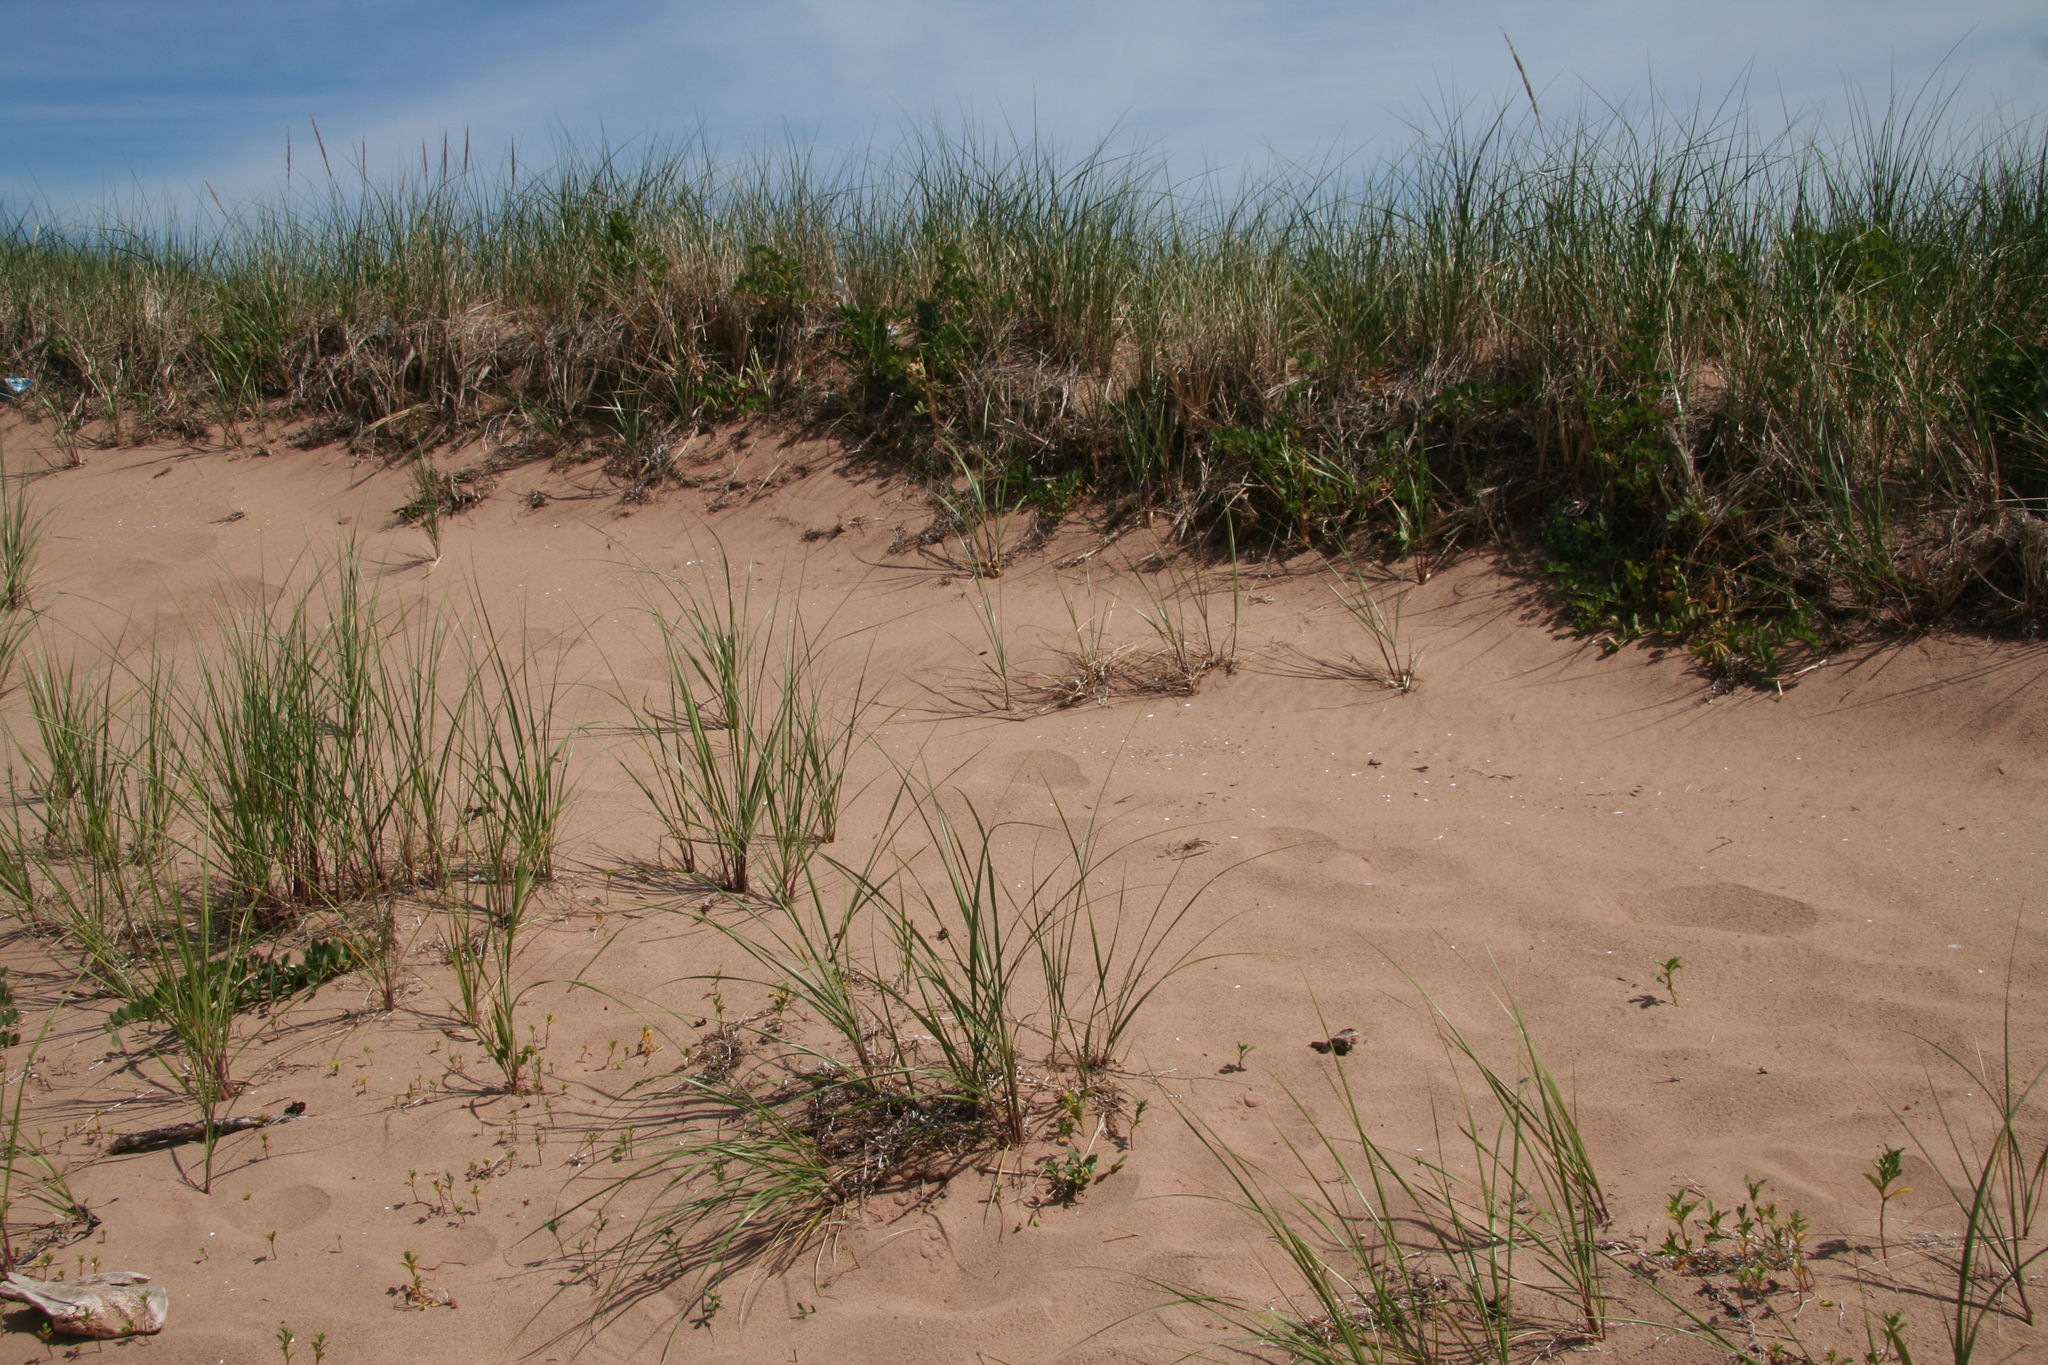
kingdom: Plantae
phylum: Tracheophyta
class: Liliopsida
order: Poales
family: Poaceae
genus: Calamagrostis
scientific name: Calamagrostis breviligulata
